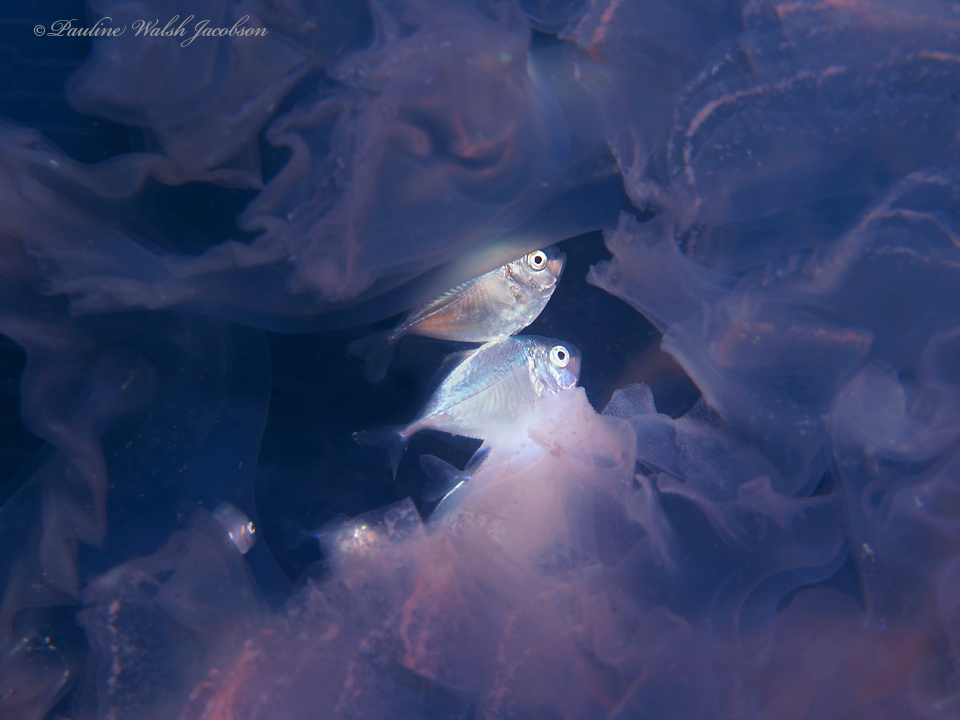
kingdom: Animalia
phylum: Cnidaria
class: Scyphozoa
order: Semaeostomeae
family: Ulmaridae
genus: Aurelia
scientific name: Aurelia marginalis
